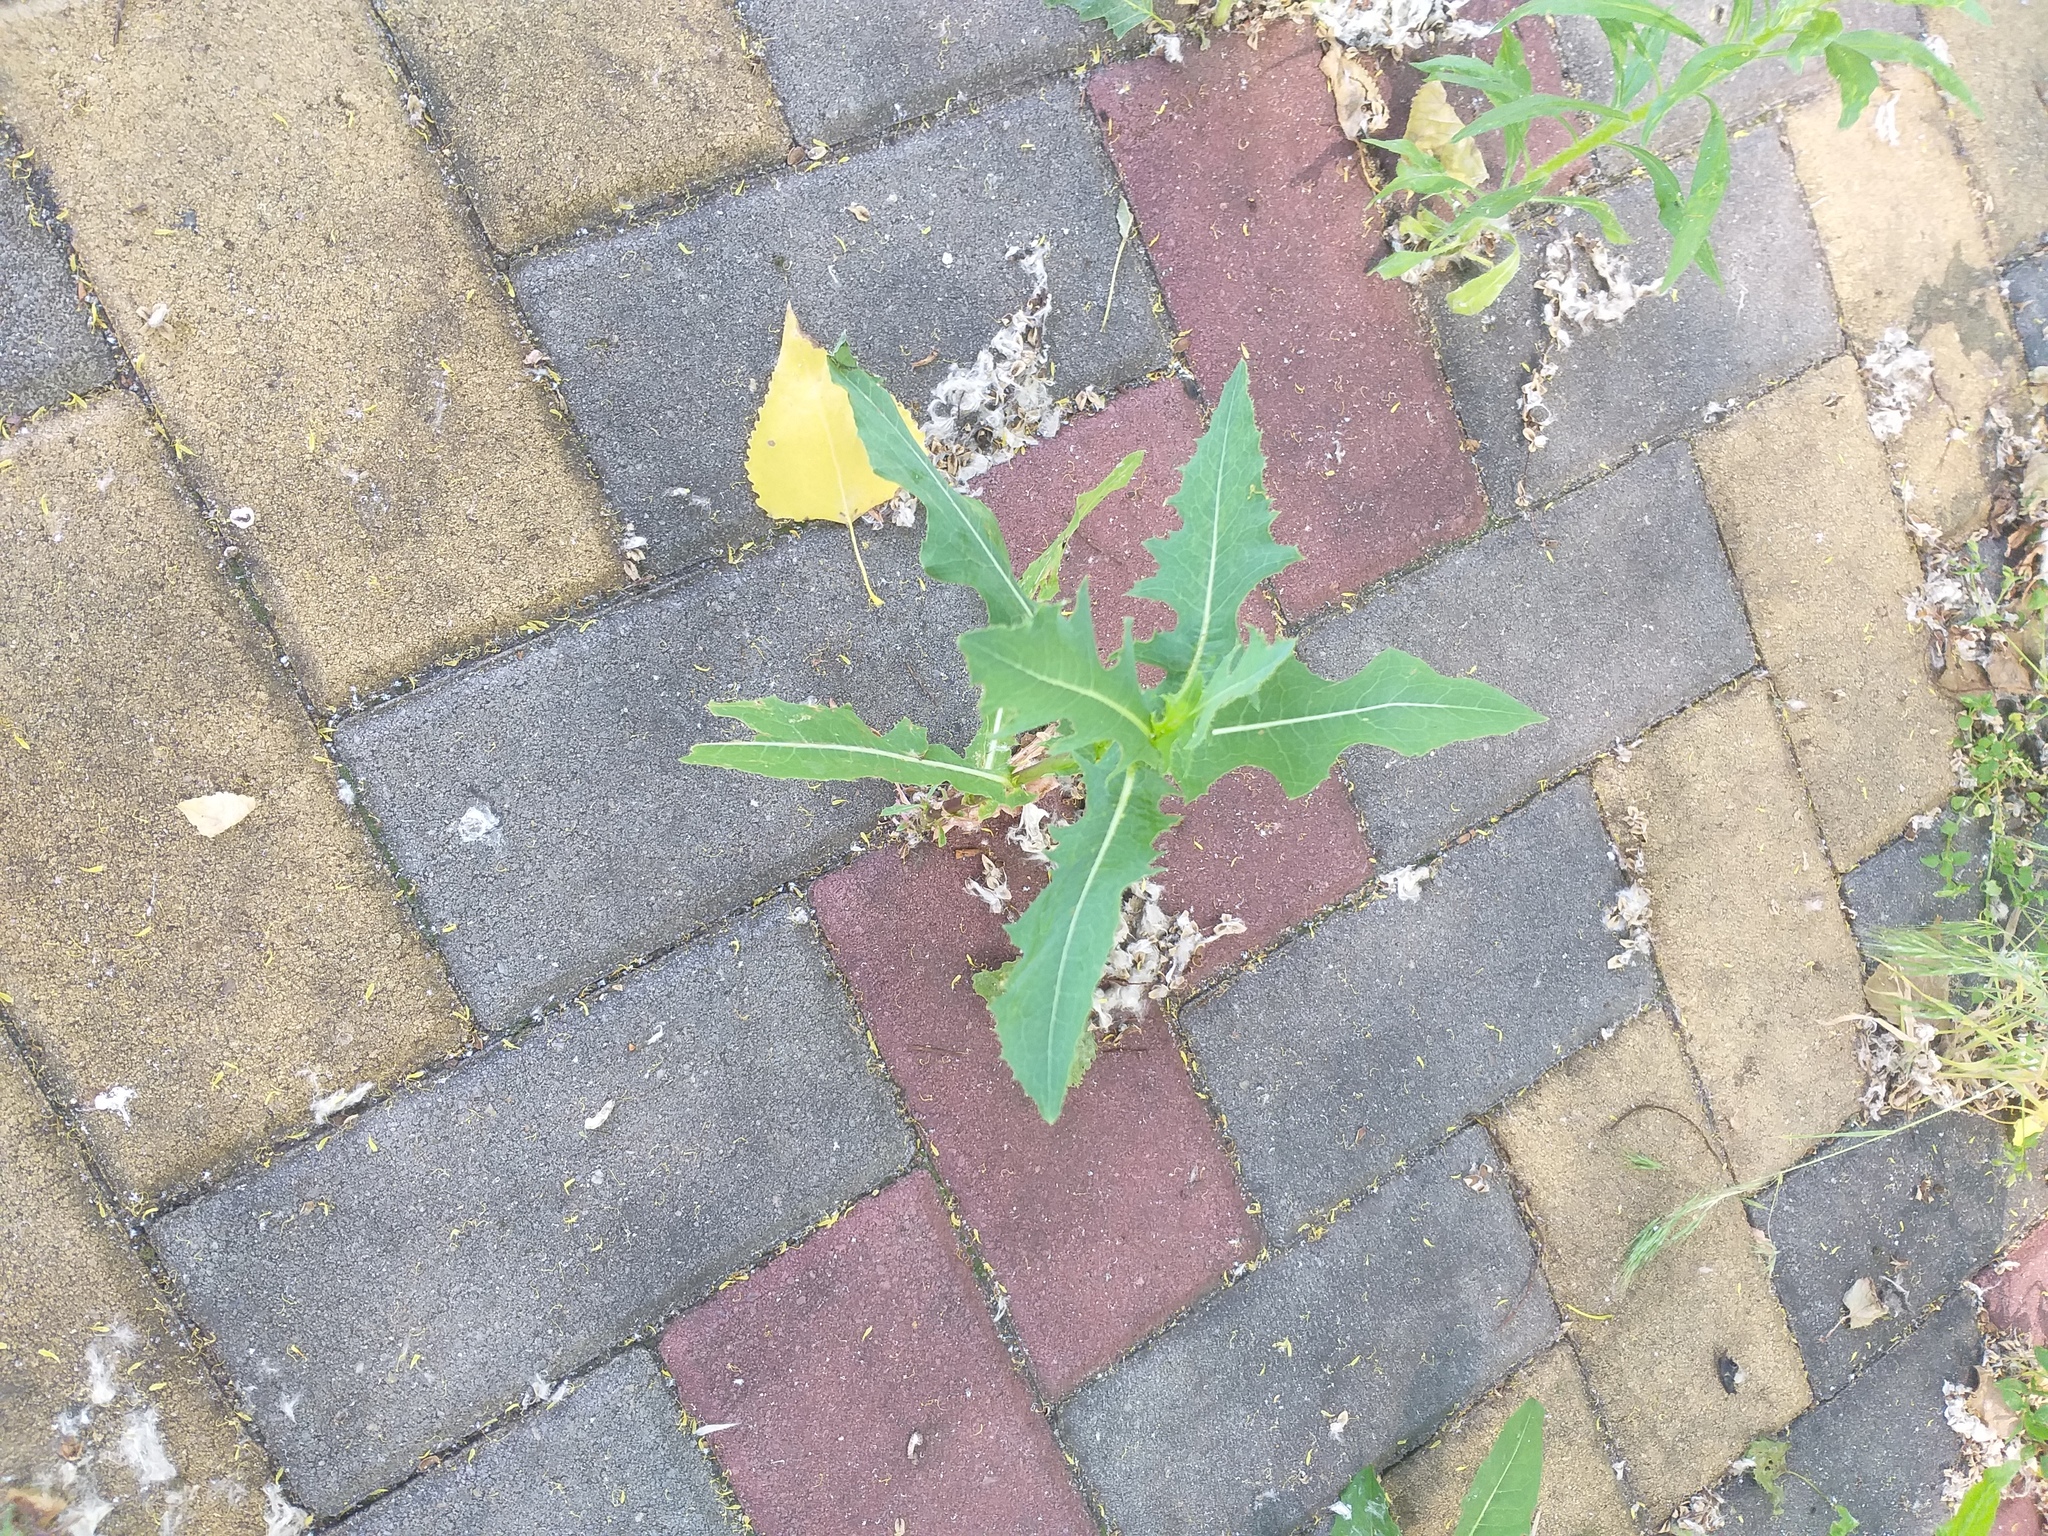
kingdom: Plantae
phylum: Tracheophyta
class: Magnoliopsida
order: Asterales
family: Asteraceae
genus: Lactuca
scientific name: Lactuca serriola
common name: Prickly lettuce
